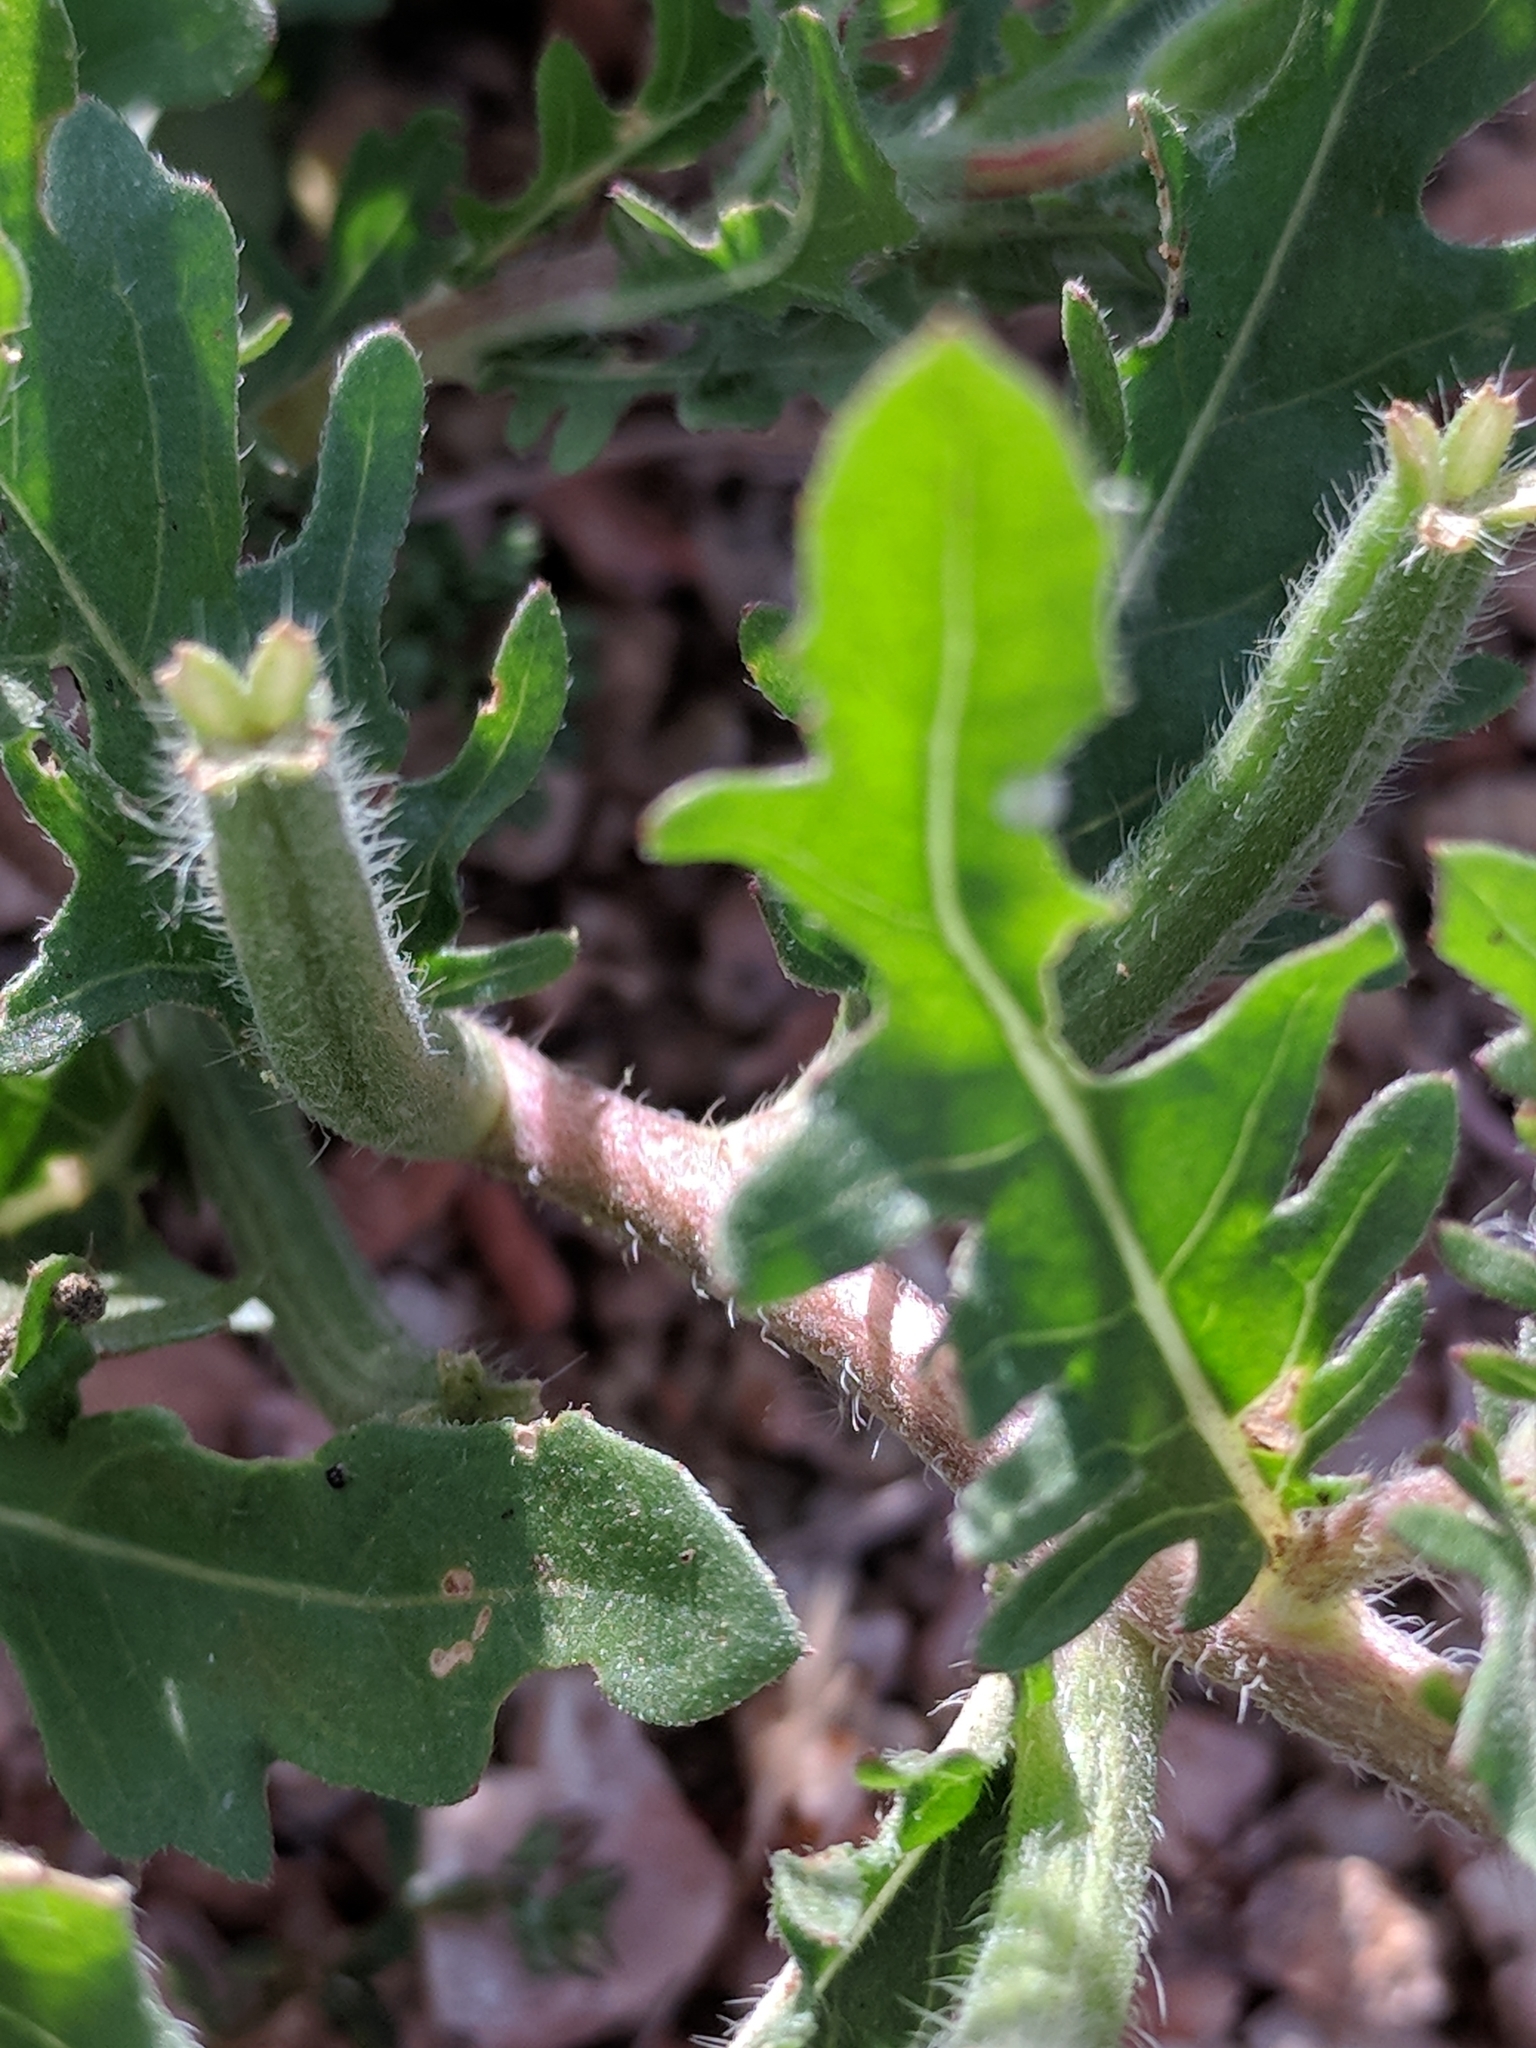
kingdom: Plantae
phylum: Tracheophyta
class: Magnoliopsida
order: Myrtales
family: Onagraceae
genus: Oenothera
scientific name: Oenothera laciniata
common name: Cut-leaved evening-primrose
